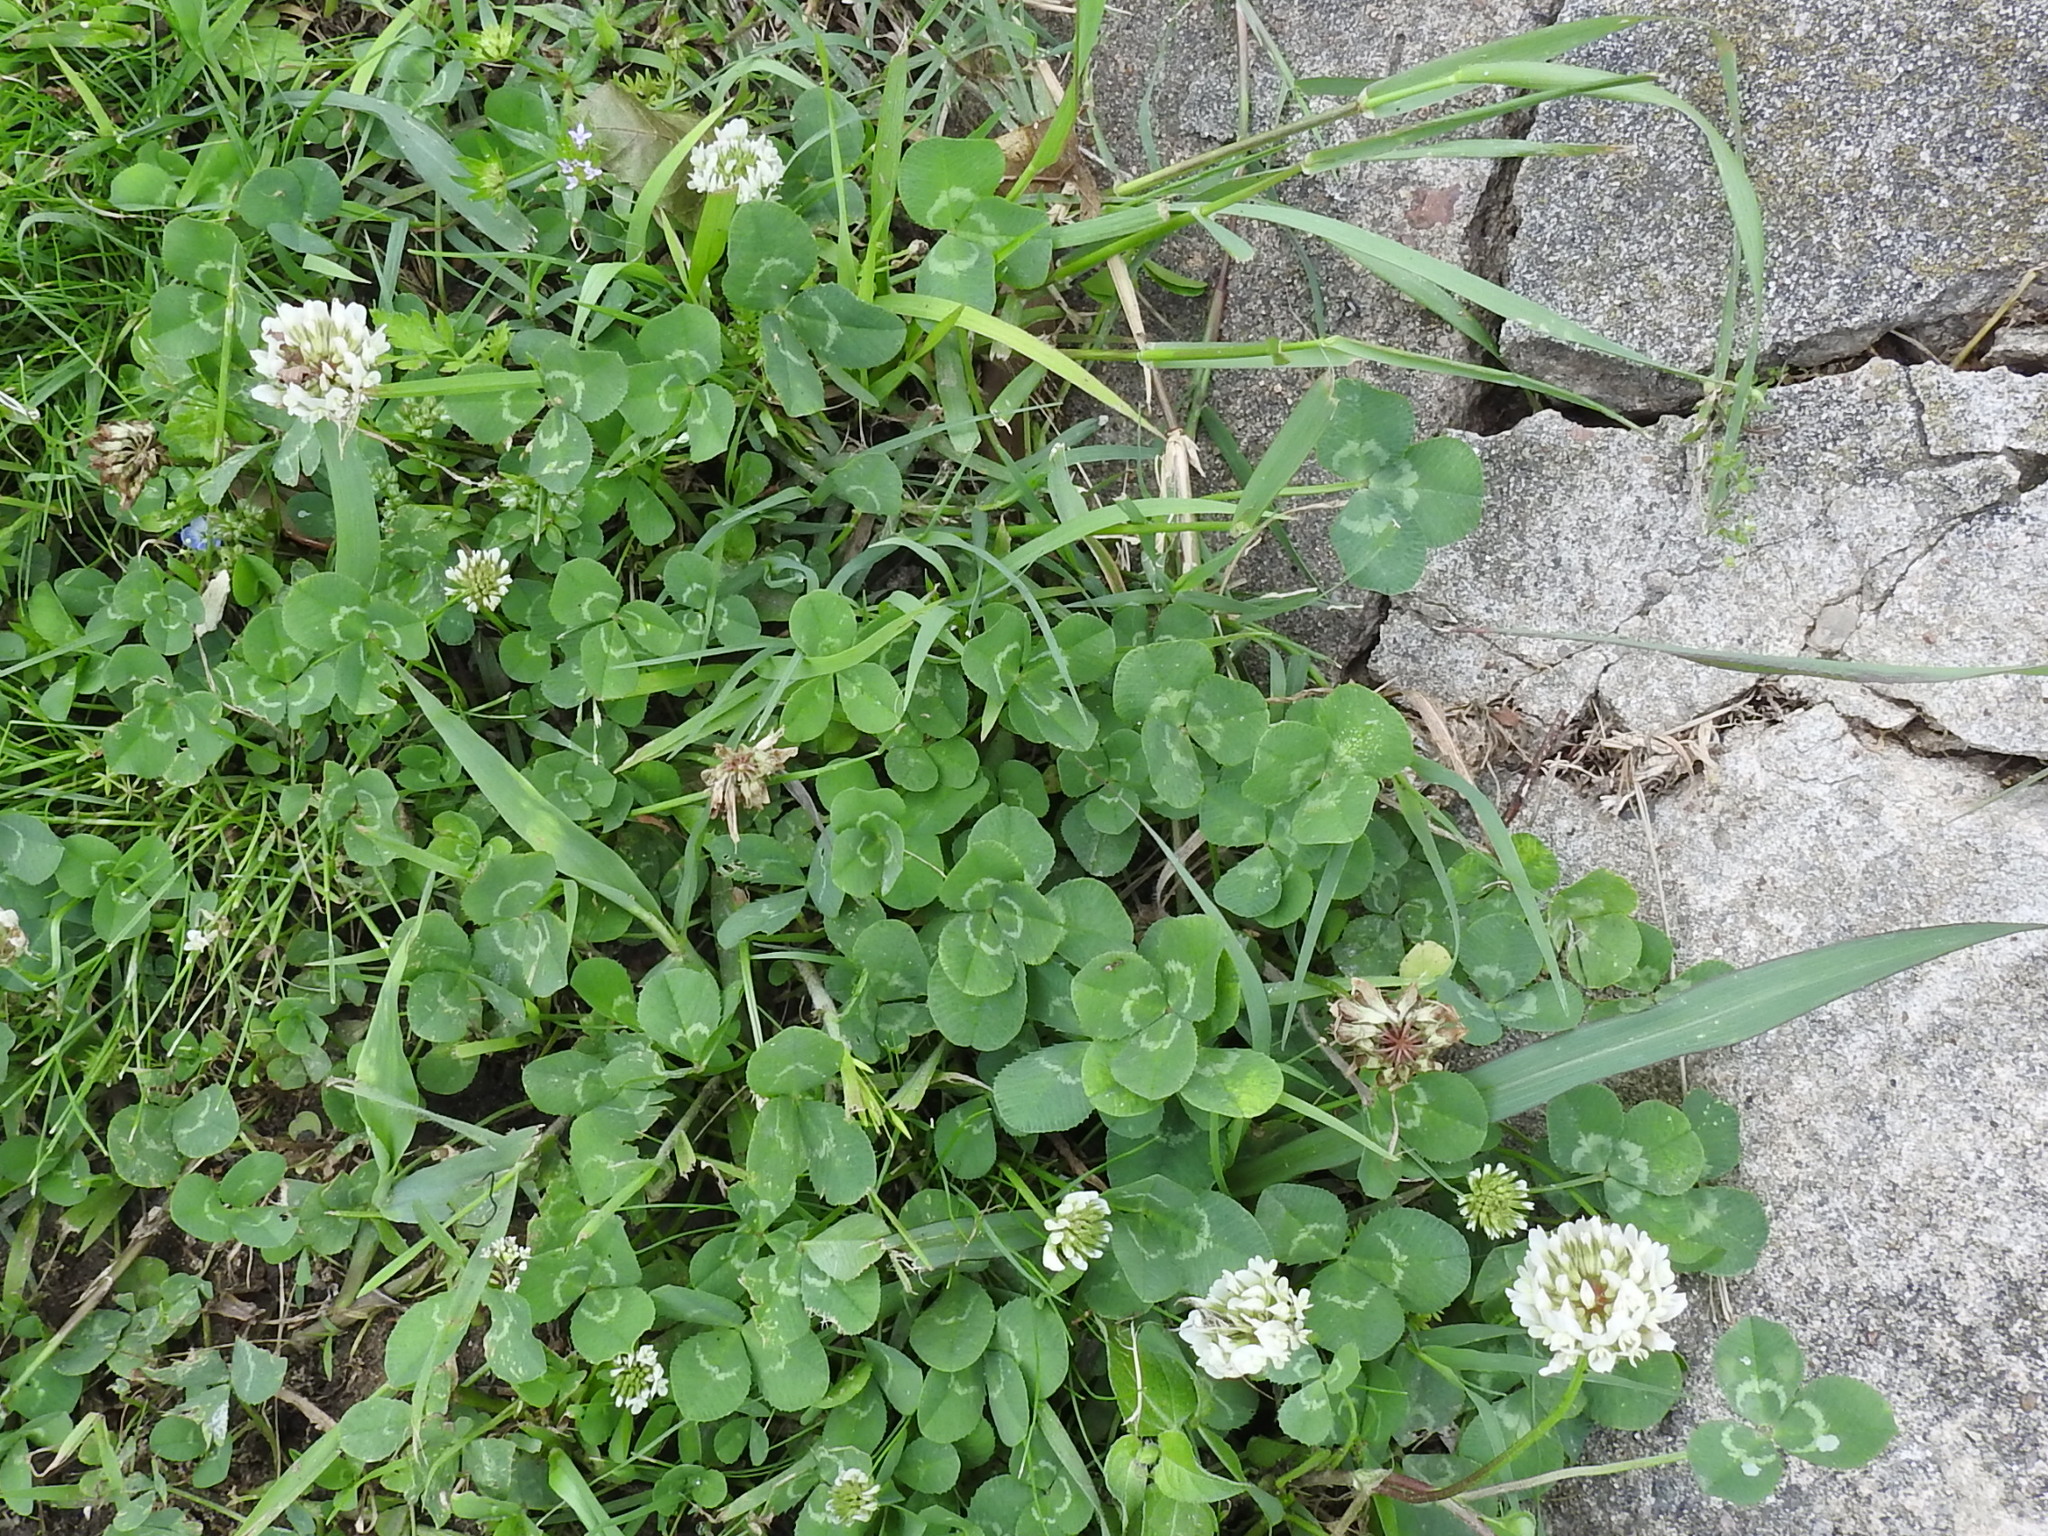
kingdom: Plantae
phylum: Tracheophyta
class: Magnoliopsida
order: Fabales
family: Fabaceae
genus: Trifolium
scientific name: Trifolium repens
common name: White clover
